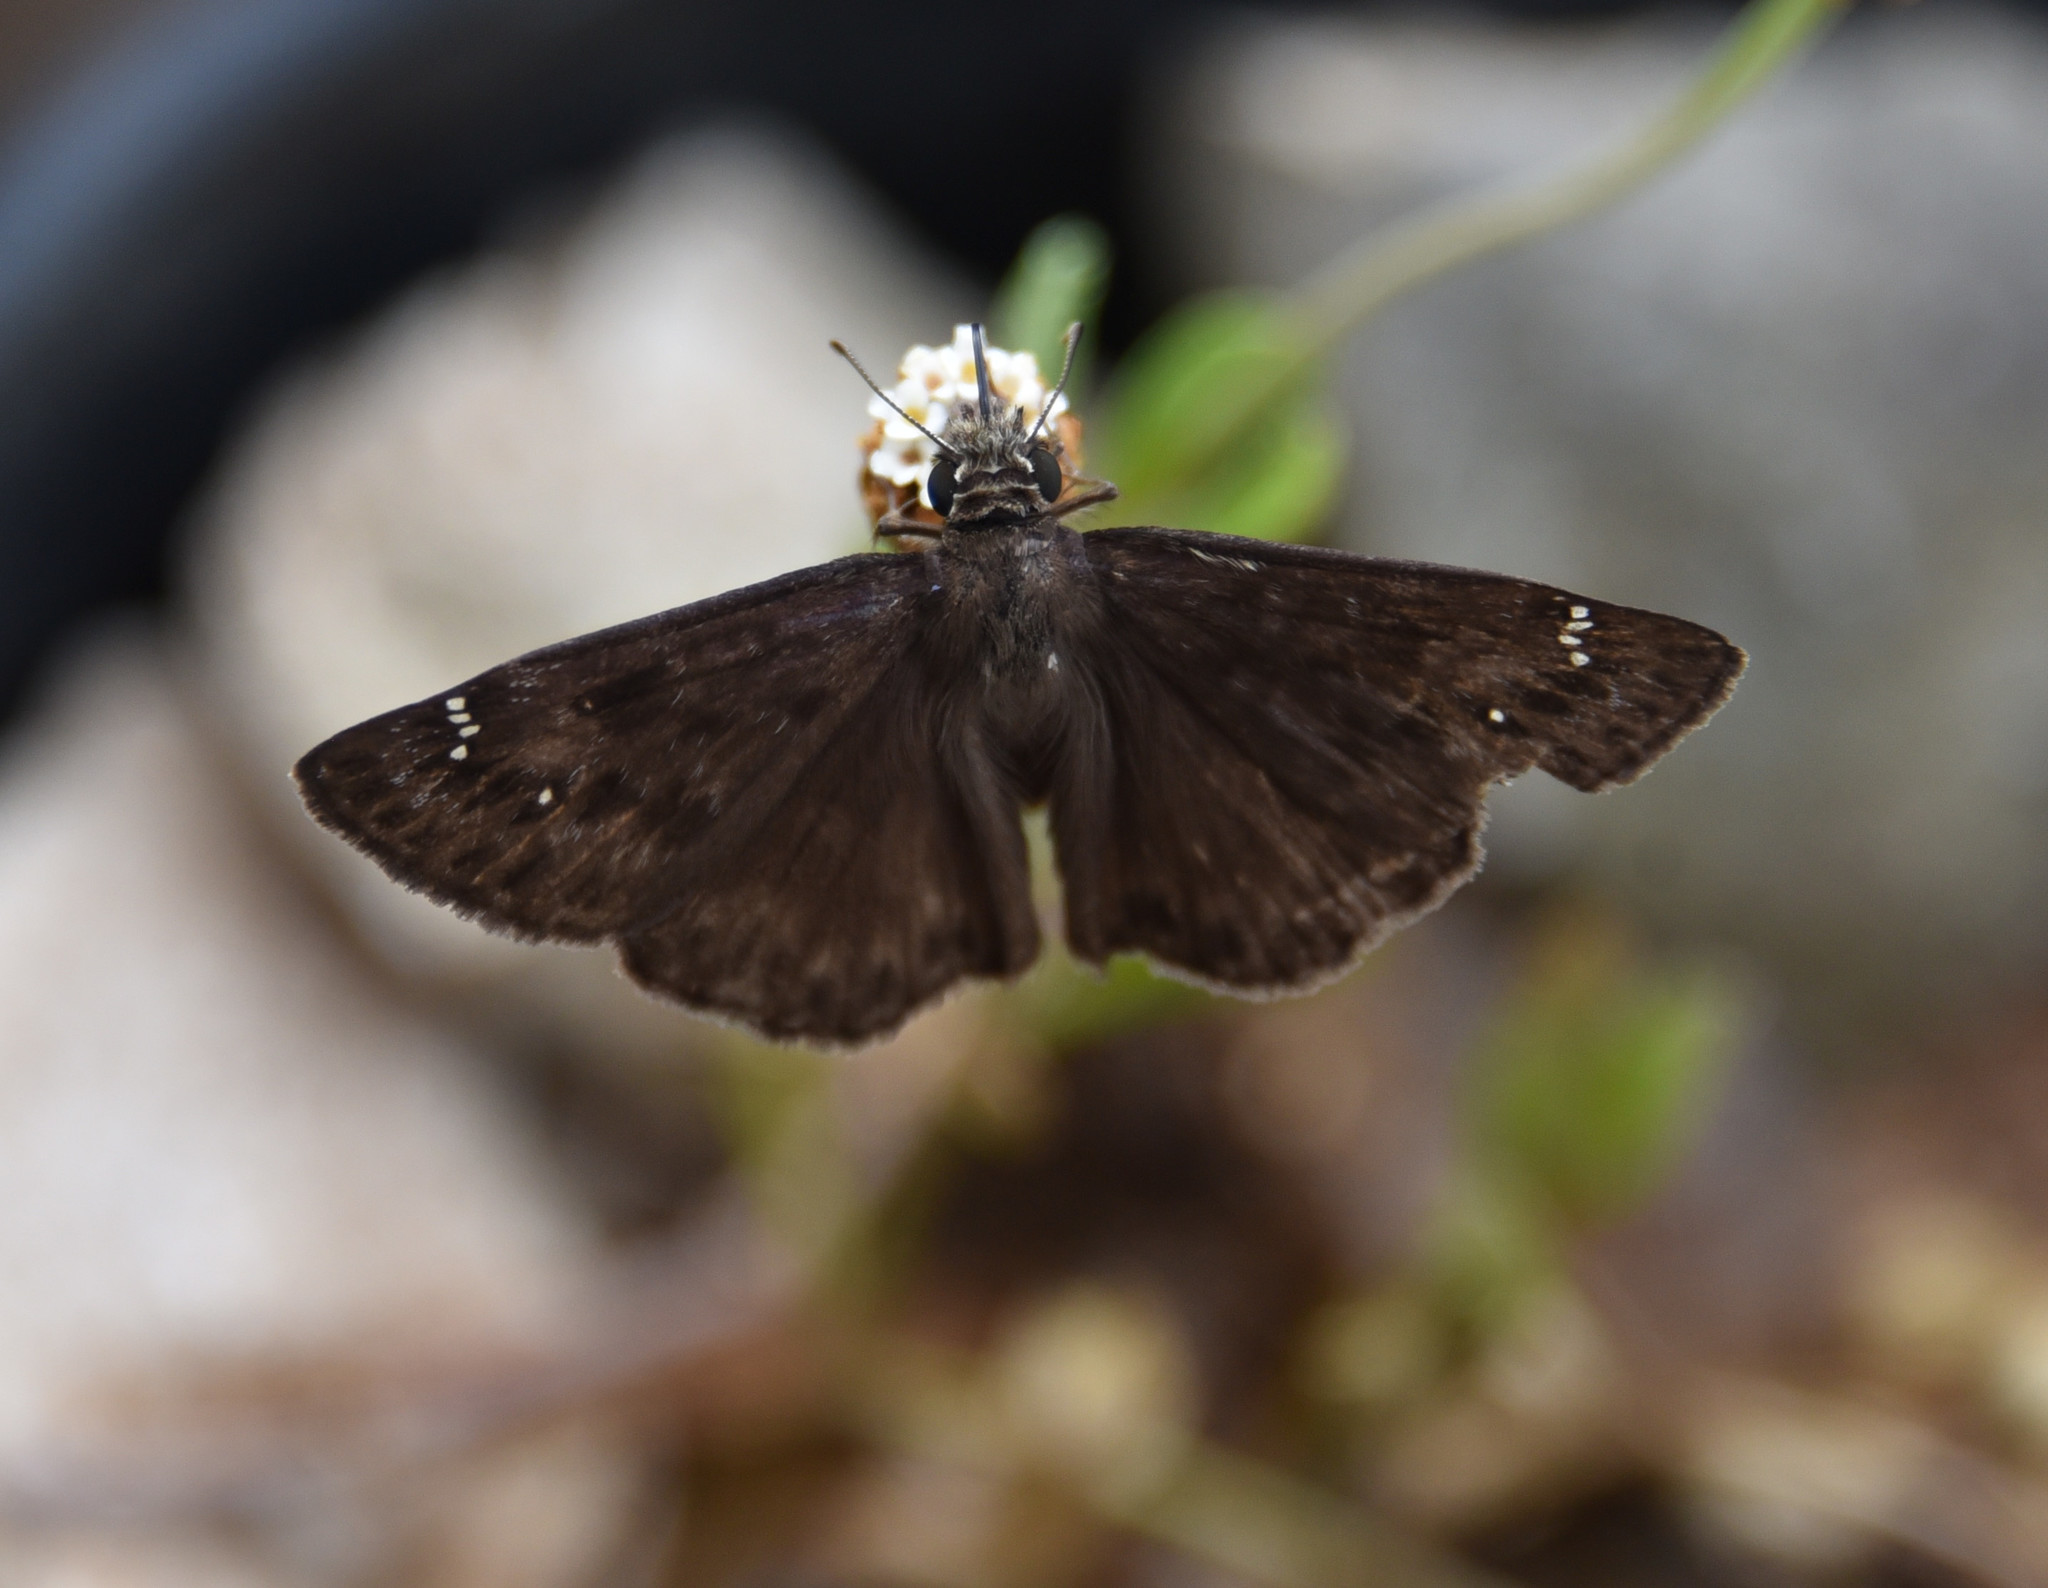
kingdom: Animalia
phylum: Arthropoda
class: Insecta
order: Lepidoptera
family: Hesperiidae
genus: Erynnis
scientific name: Erynnis horatius
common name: Horace's duskywing
